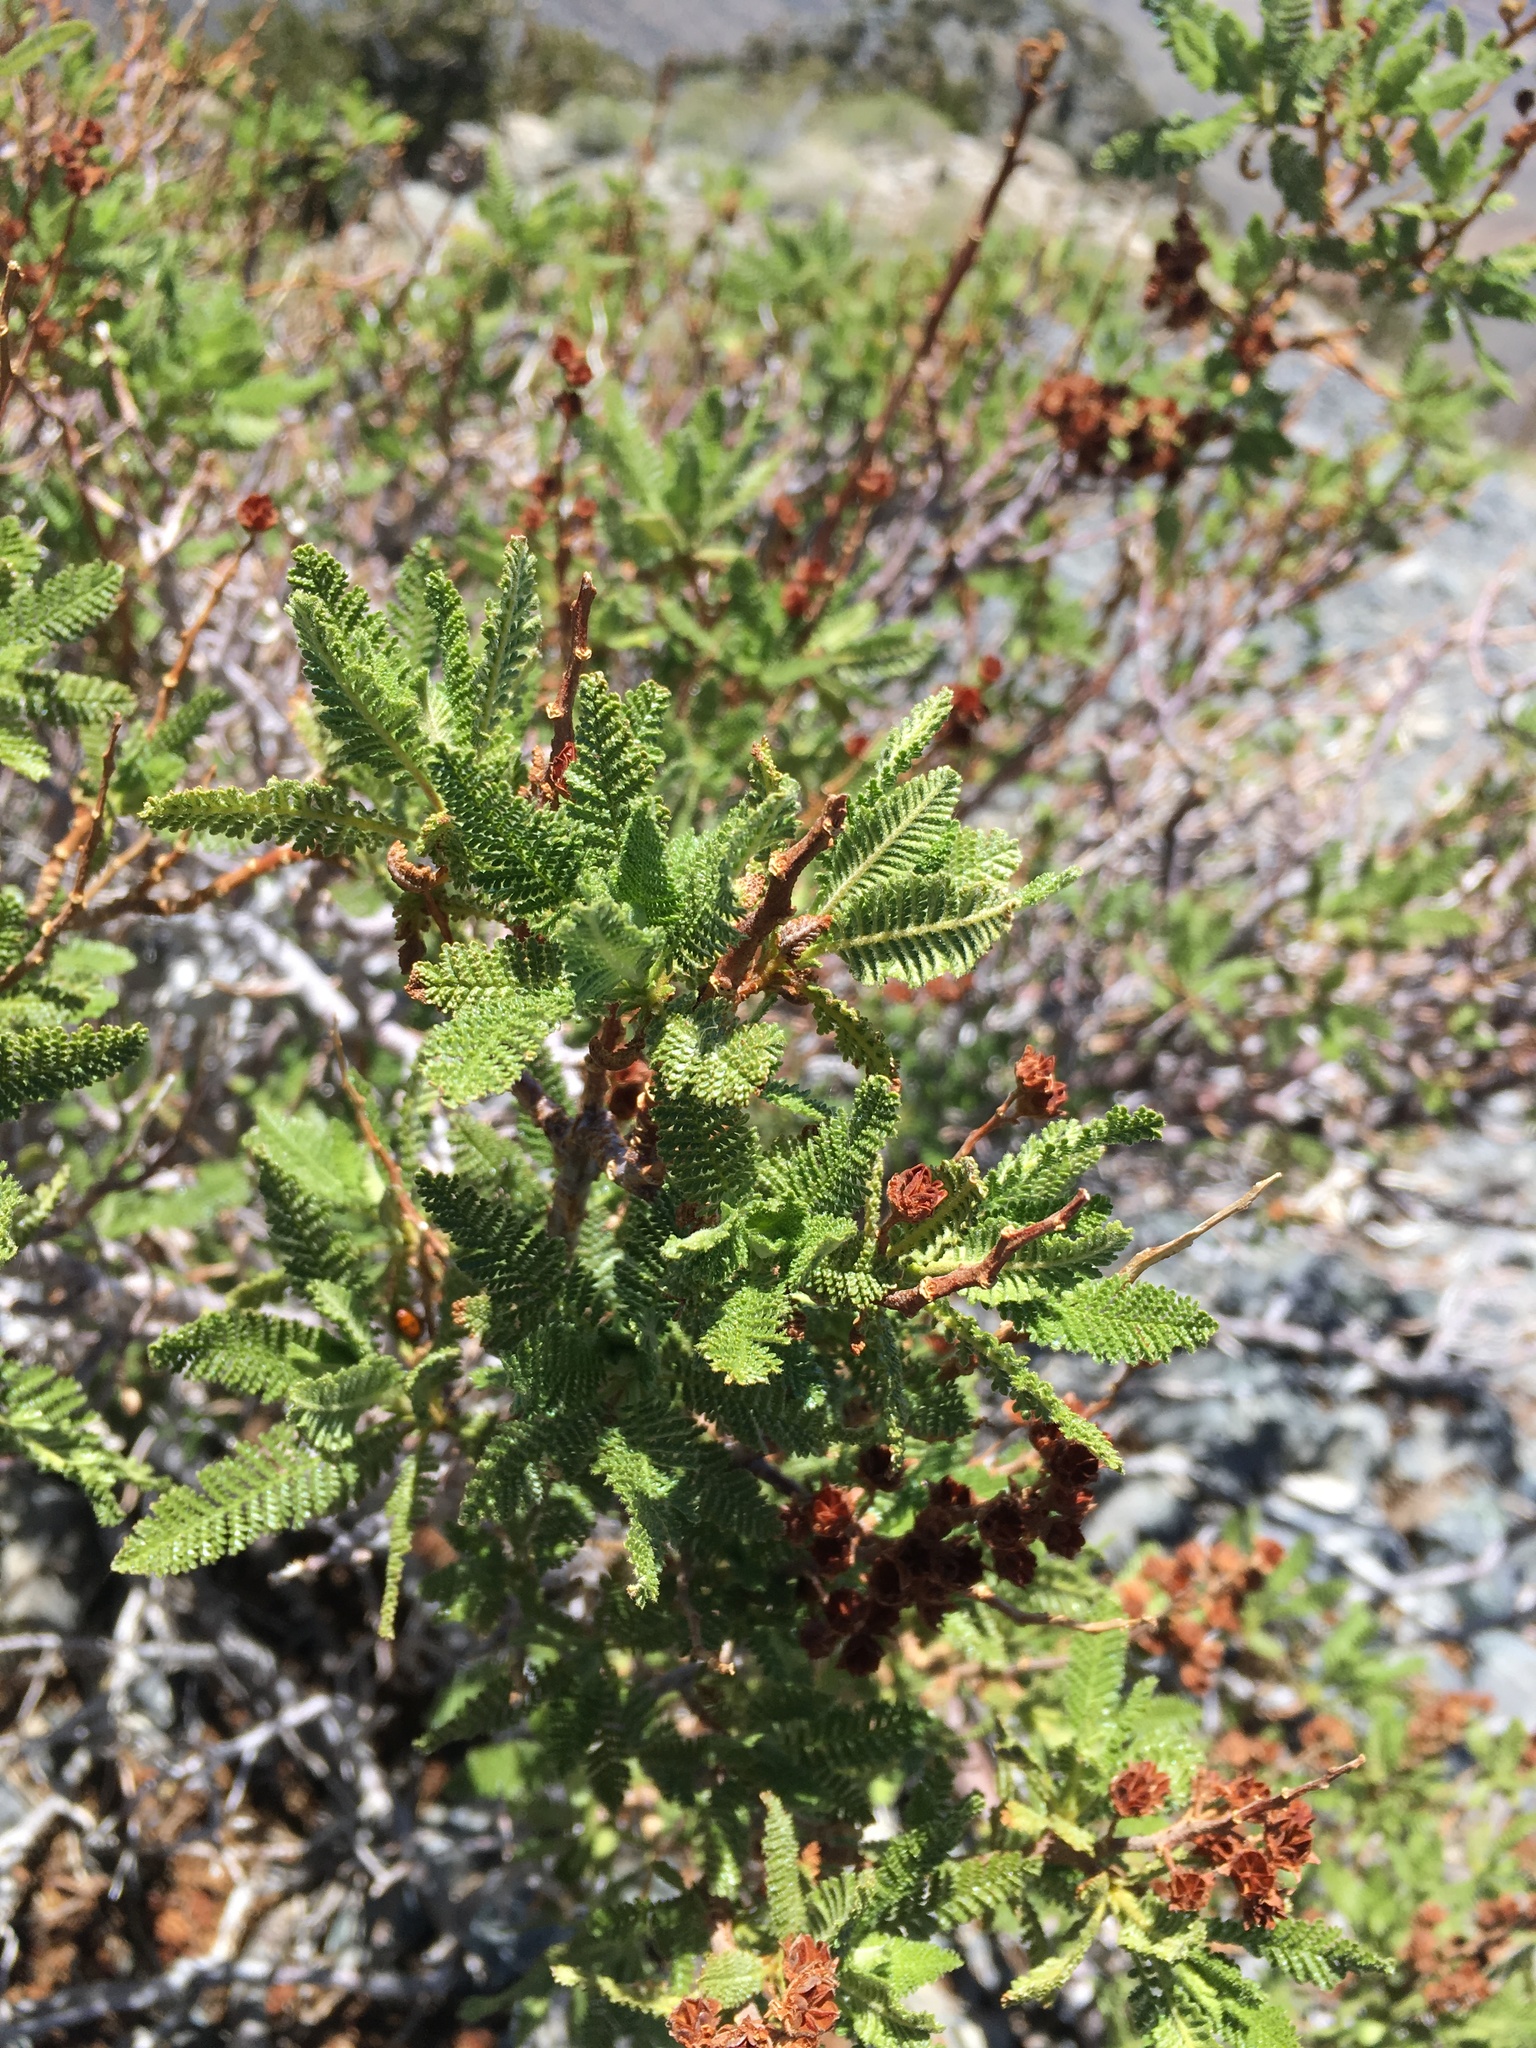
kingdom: Plantae
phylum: Tracheophyta
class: Magnoliopsida
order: Rosales
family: Rosaceae
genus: Chamaebatiaria
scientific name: Chamaebatiaria millefolium
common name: Fernbush
